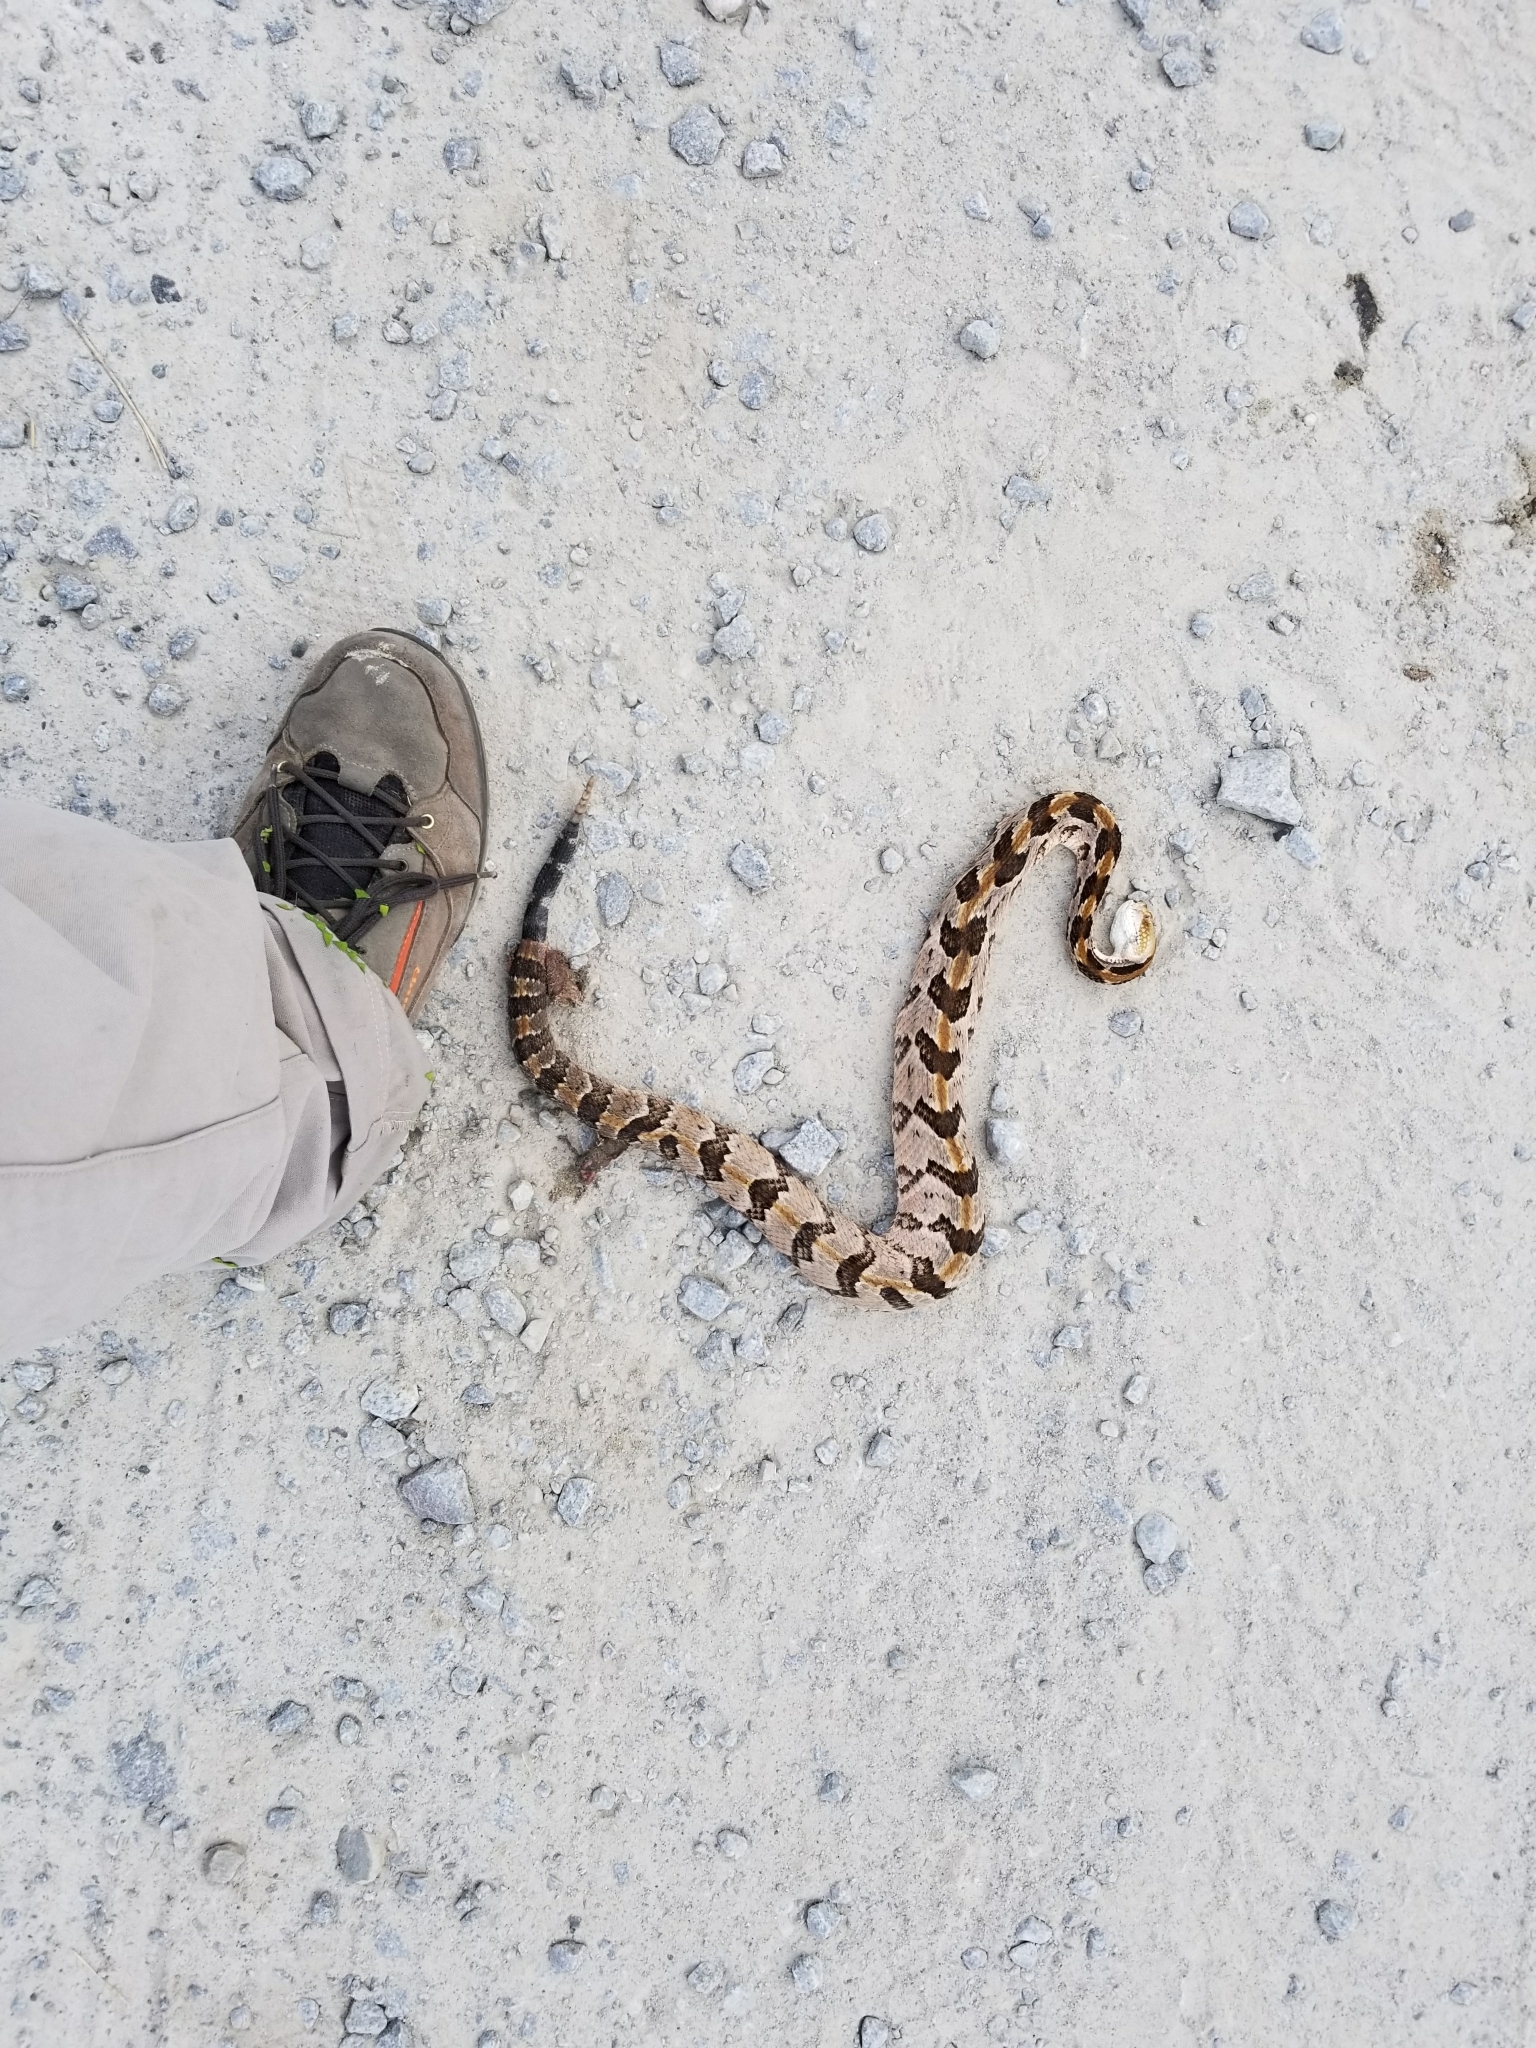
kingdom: Animalia
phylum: Chordata
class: Squamata
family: Viperidae
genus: Crotalus
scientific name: Crotalus horridus
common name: Timber rattlesnake
